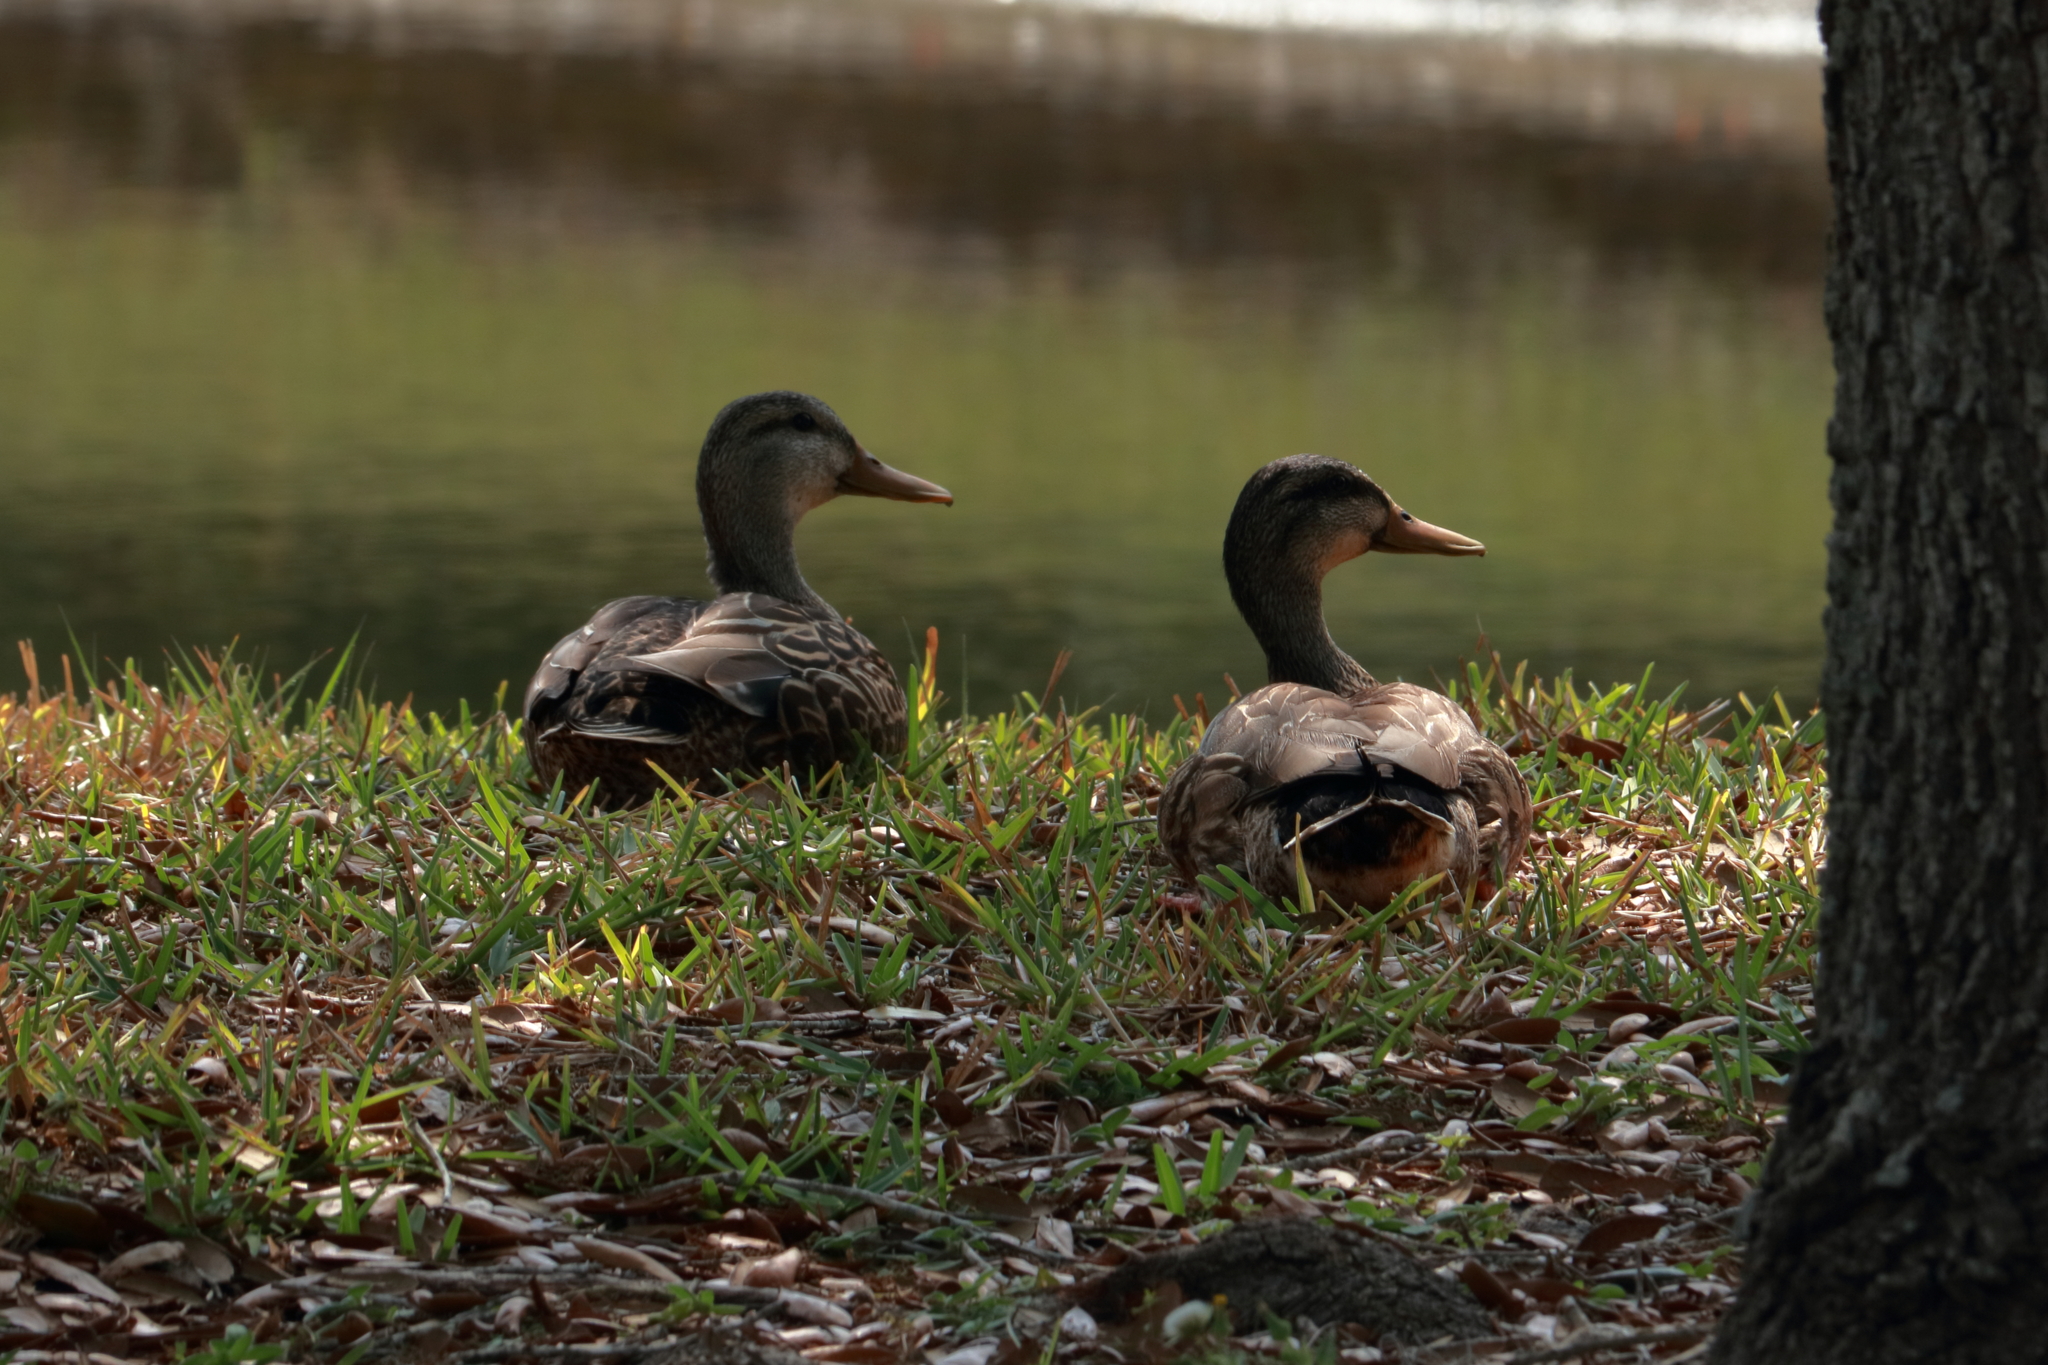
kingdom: Animalia
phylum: Chordata
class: Aves
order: Anseriformes
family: Anatidae
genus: Anas
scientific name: Anas
